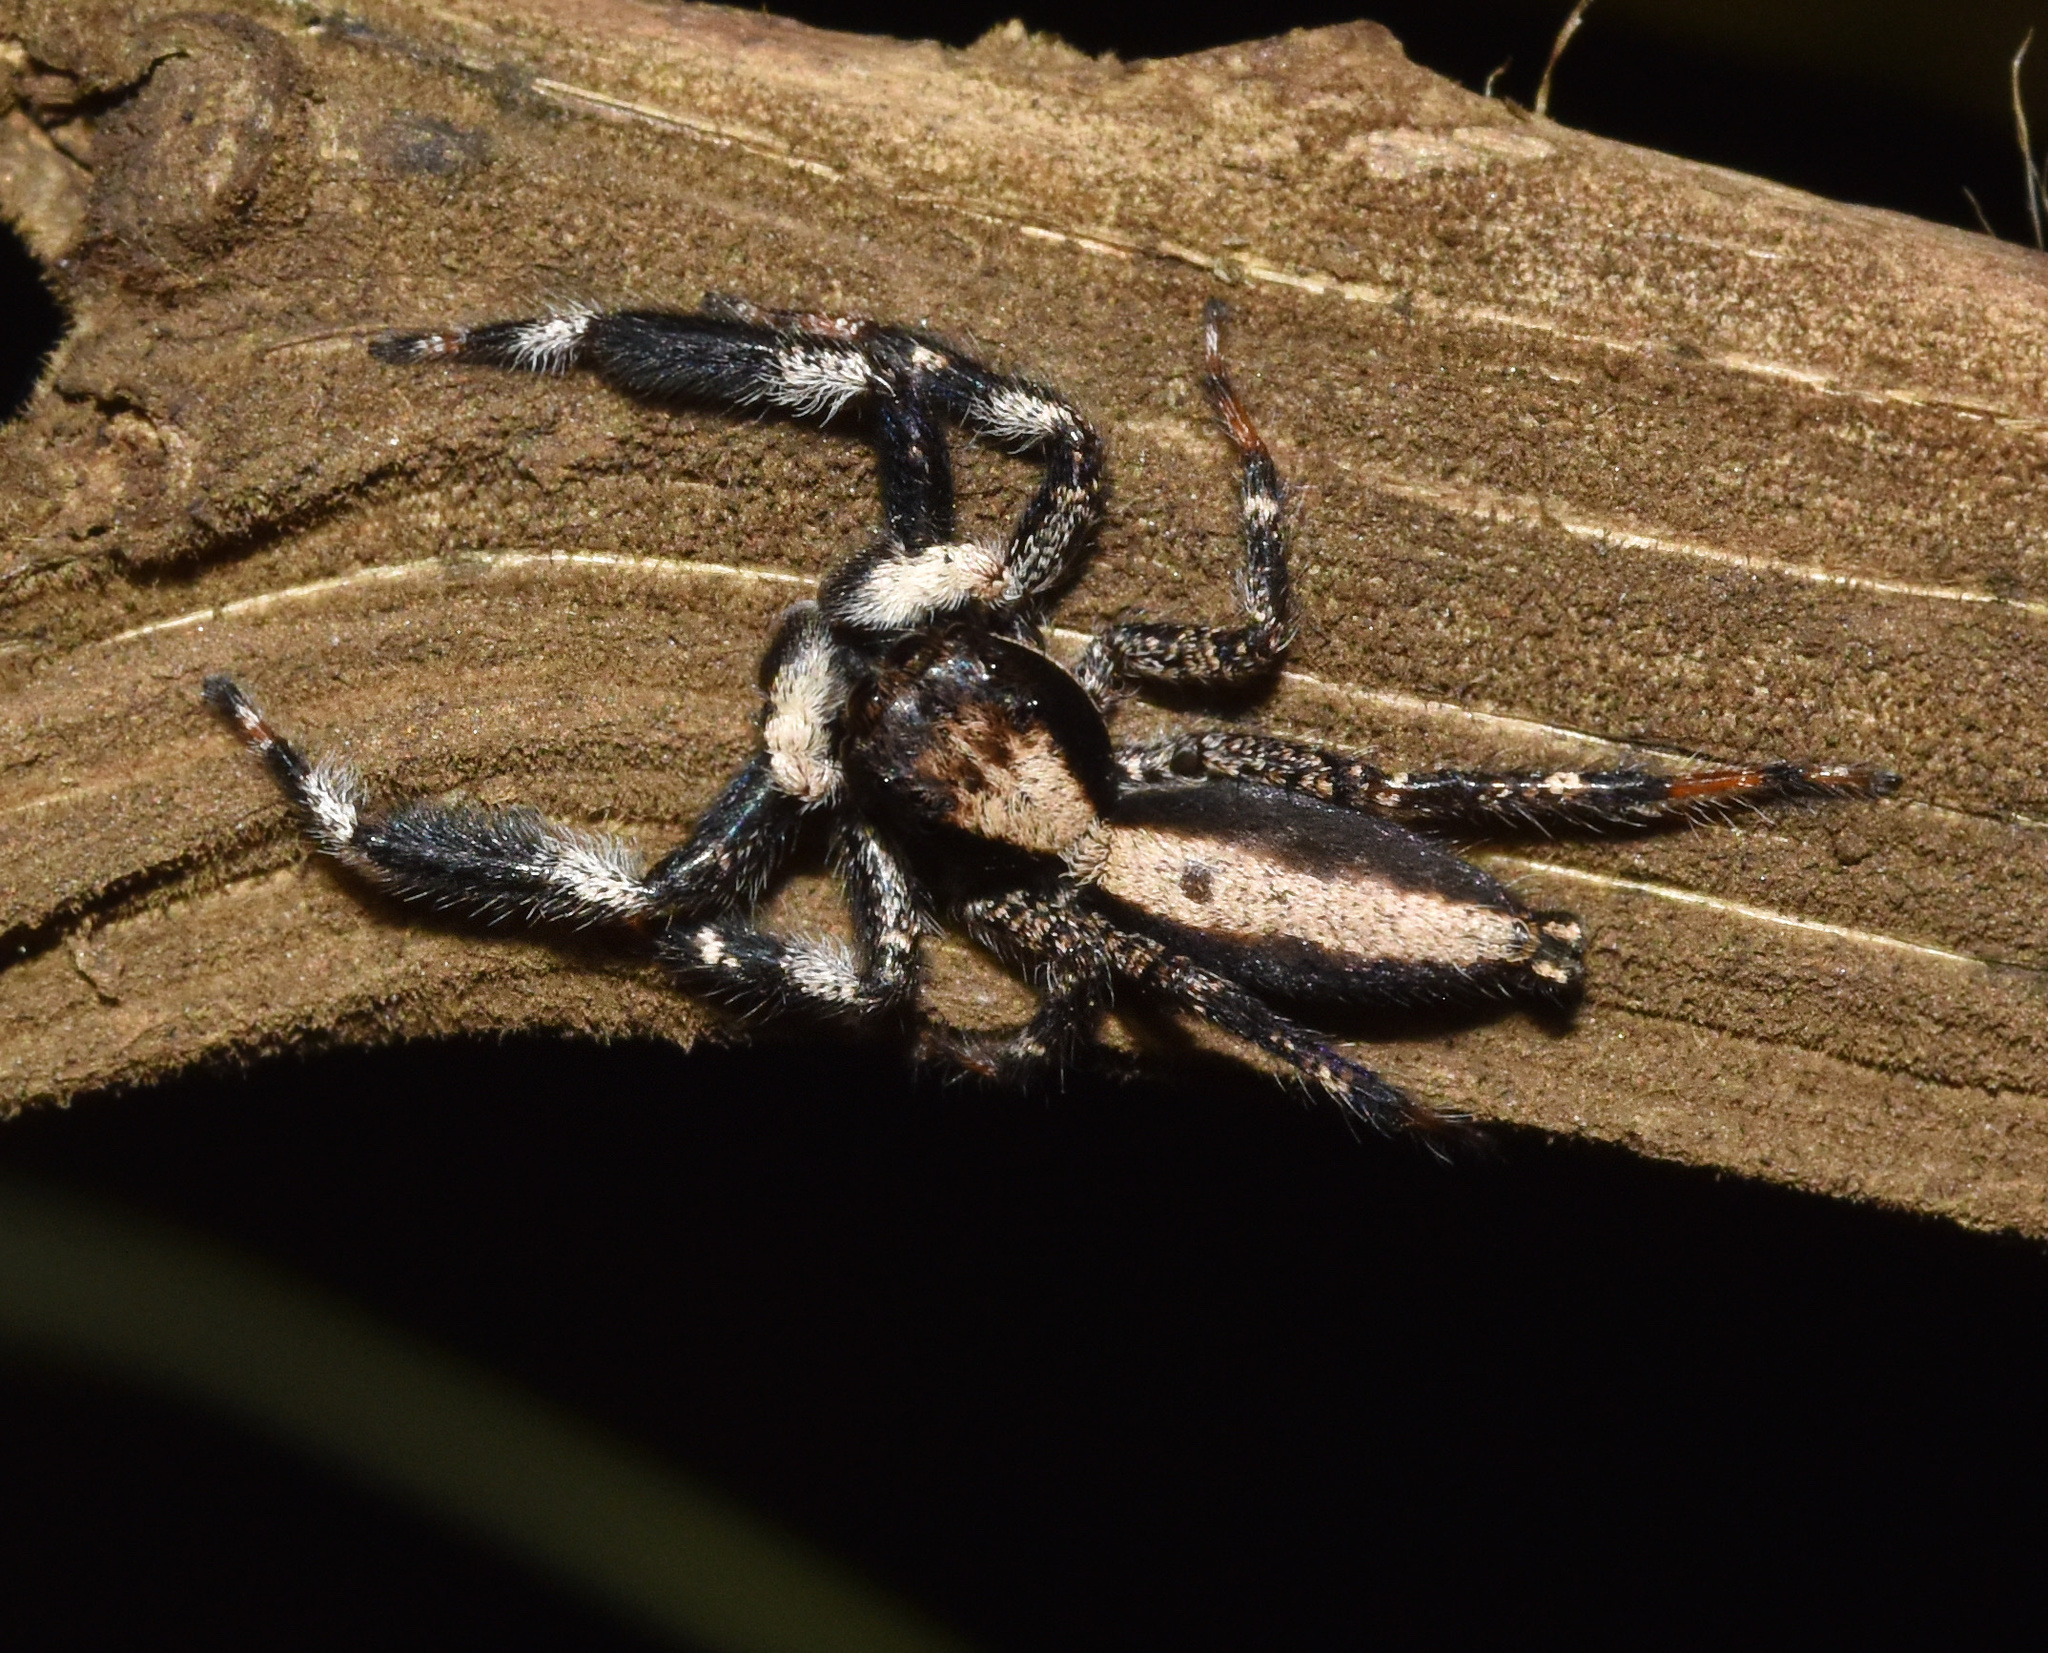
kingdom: Animalia
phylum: Arthropoda
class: Arachnida
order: Araneae
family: Salticidae
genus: Holcolaetis
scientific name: Holcolaetis zuluensis
